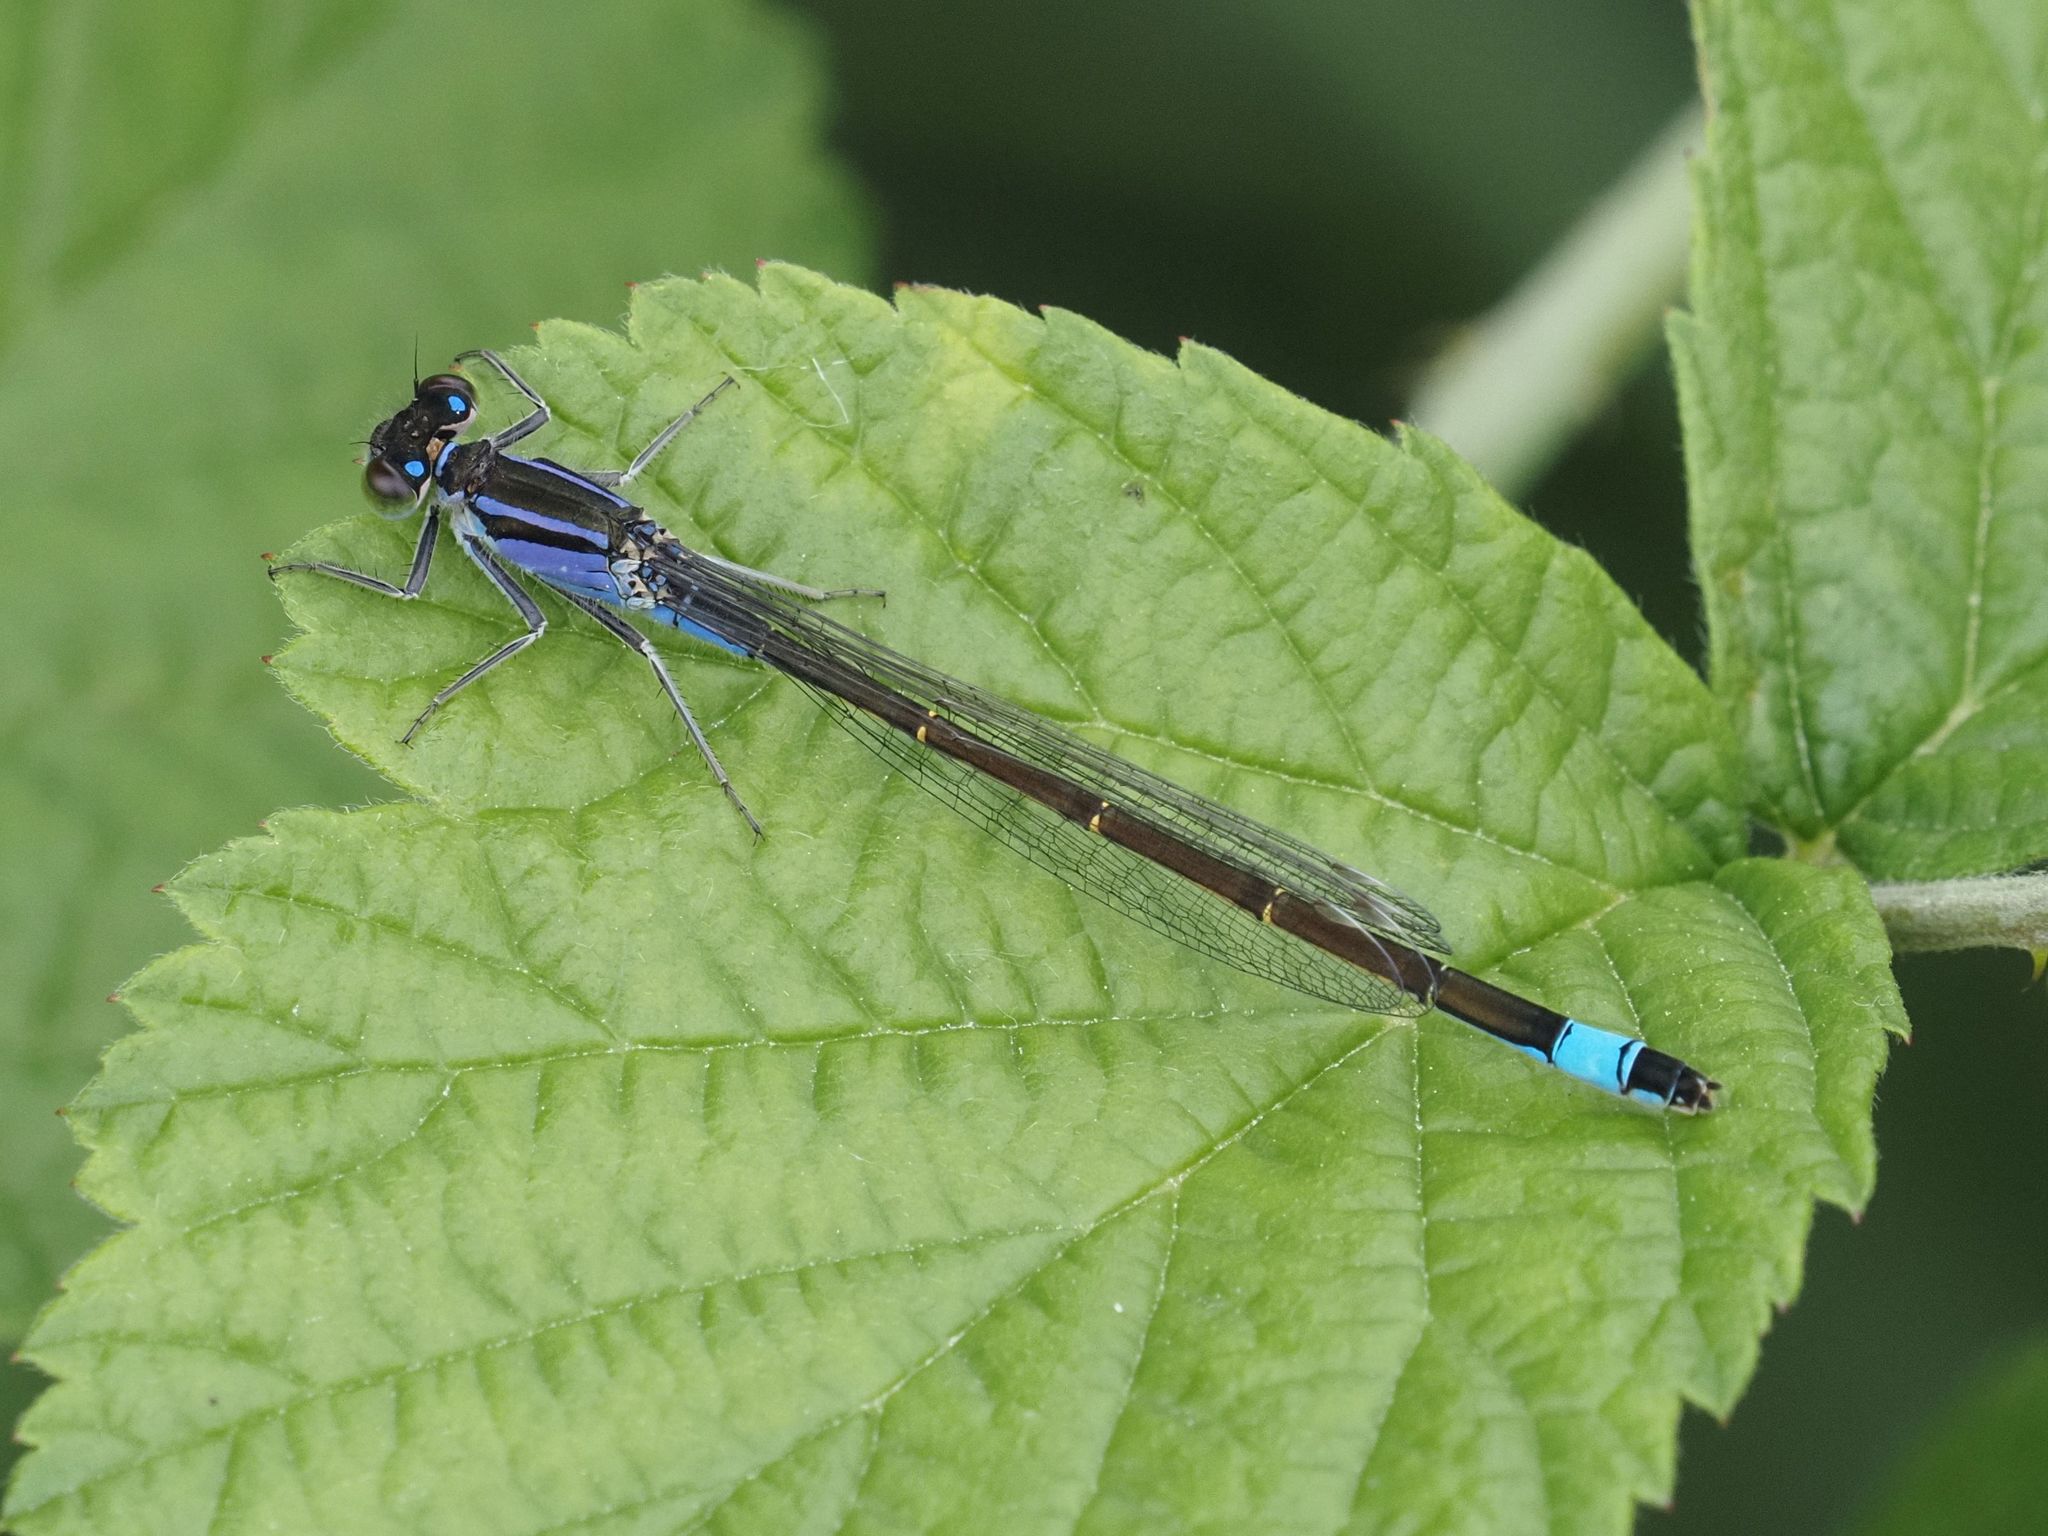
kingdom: Animalia
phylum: Arthropoda
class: Insecta
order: Odonata
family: Coenagrionidae
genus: Ischnura
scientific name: Ischnura elegans
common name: Blue-tailed damselfly
